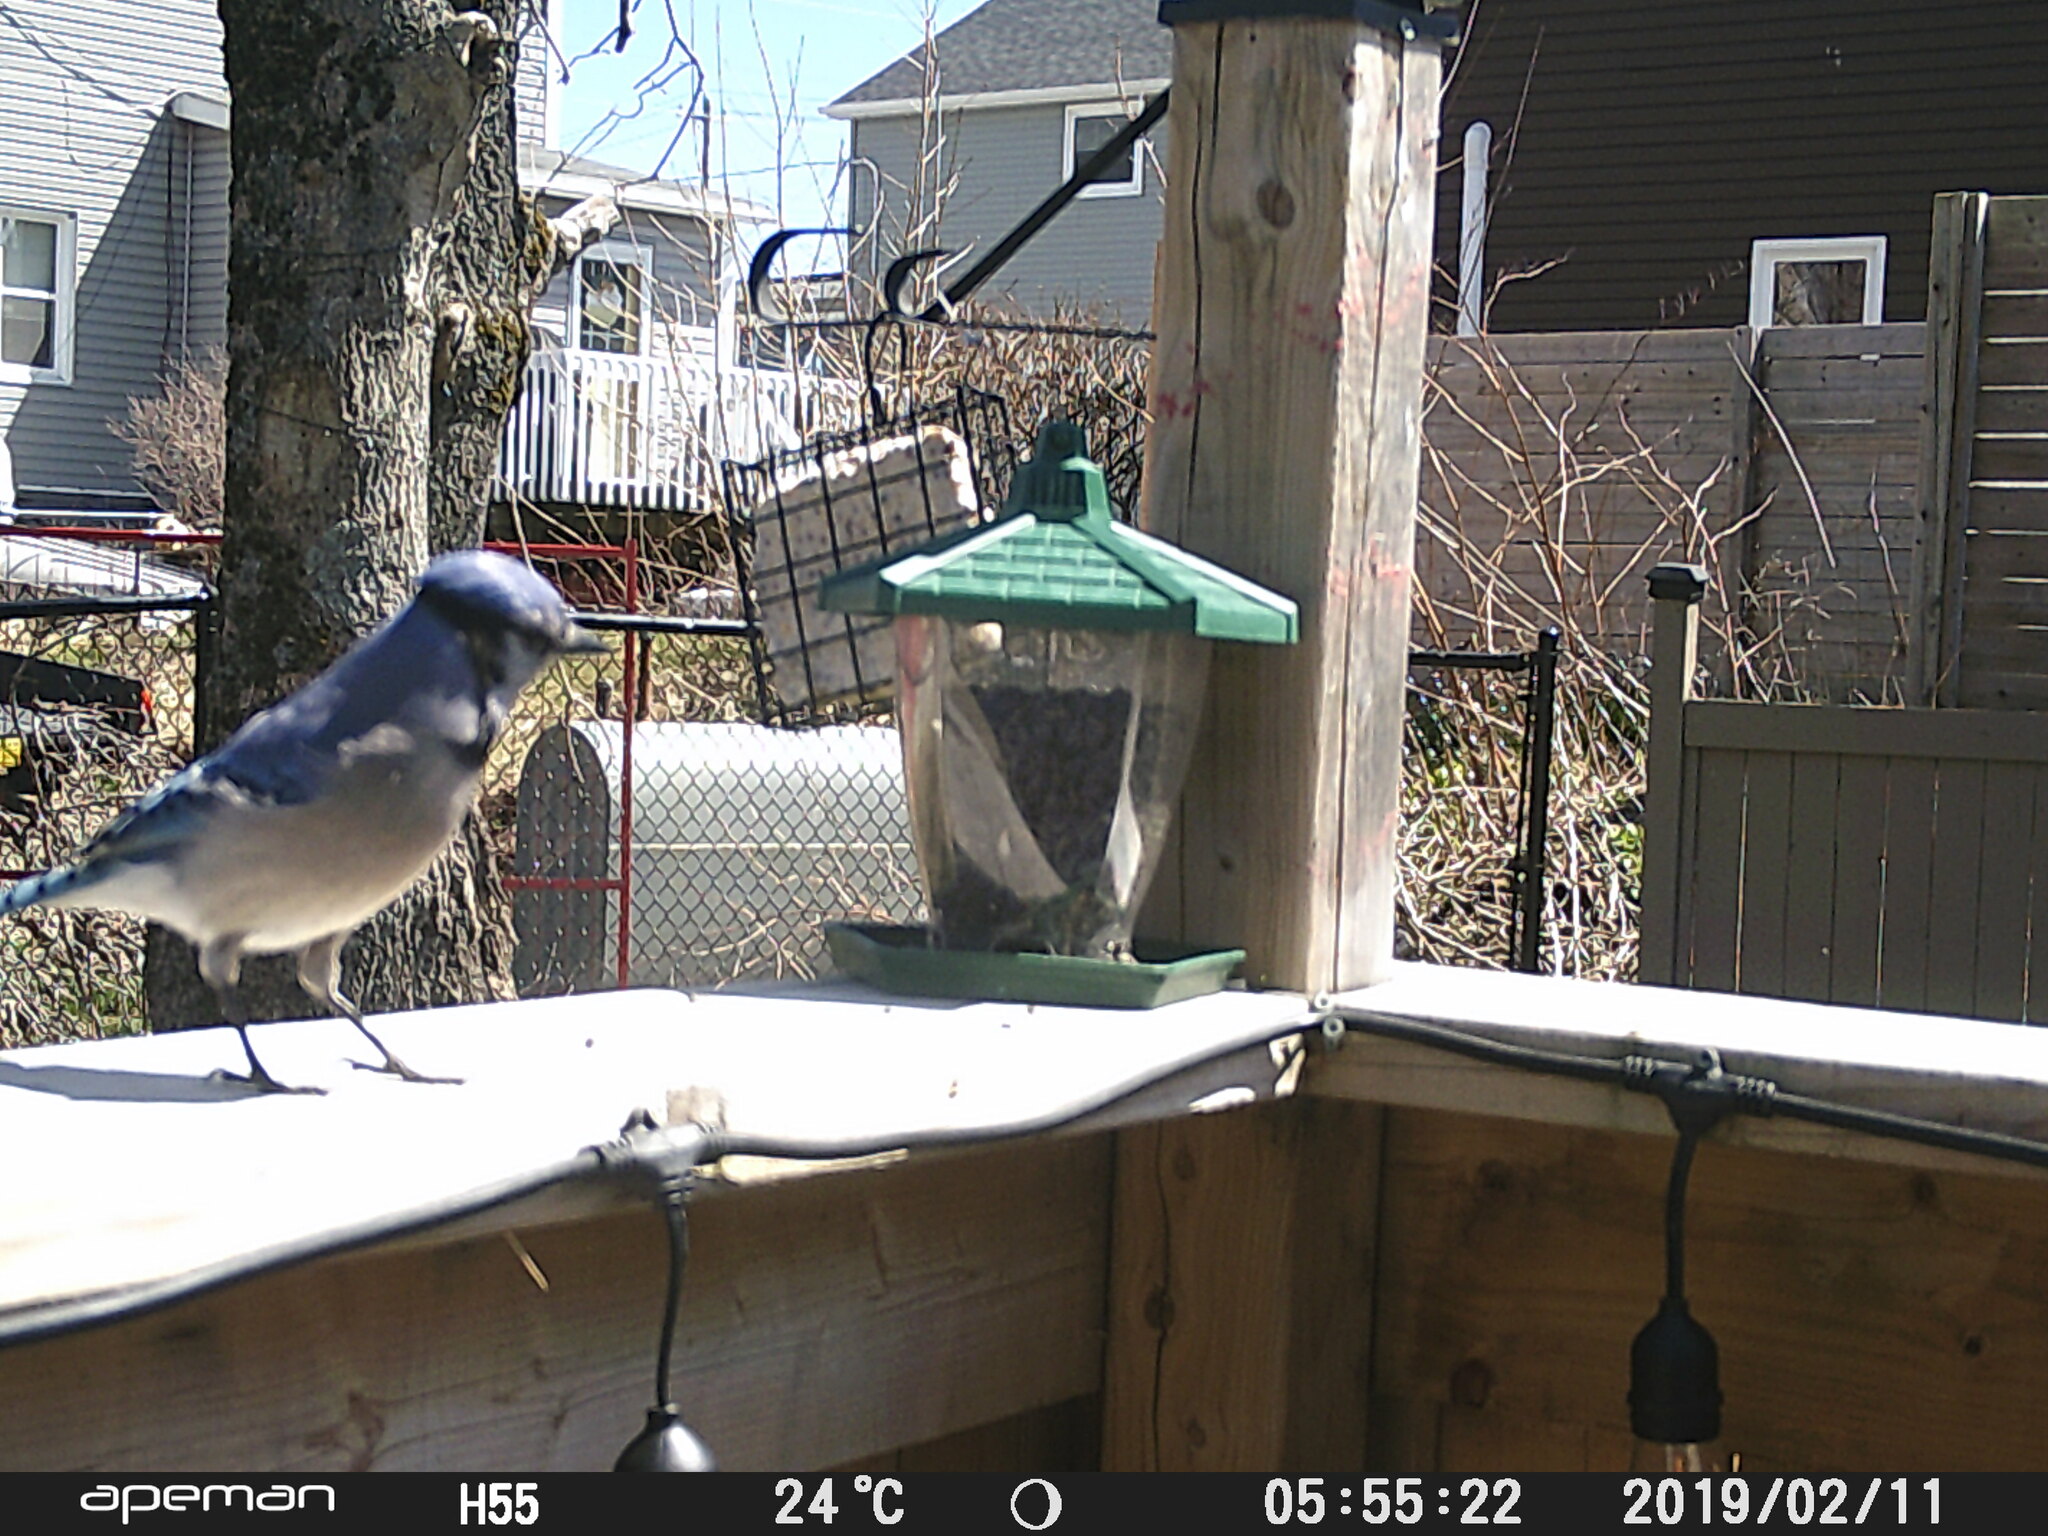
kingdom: Animalia
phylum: Chordata
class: Aves
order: Passeriformes
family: Corvidae
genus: Cyanocitta
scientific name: Cyanocitta cristata
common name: Blue jay
